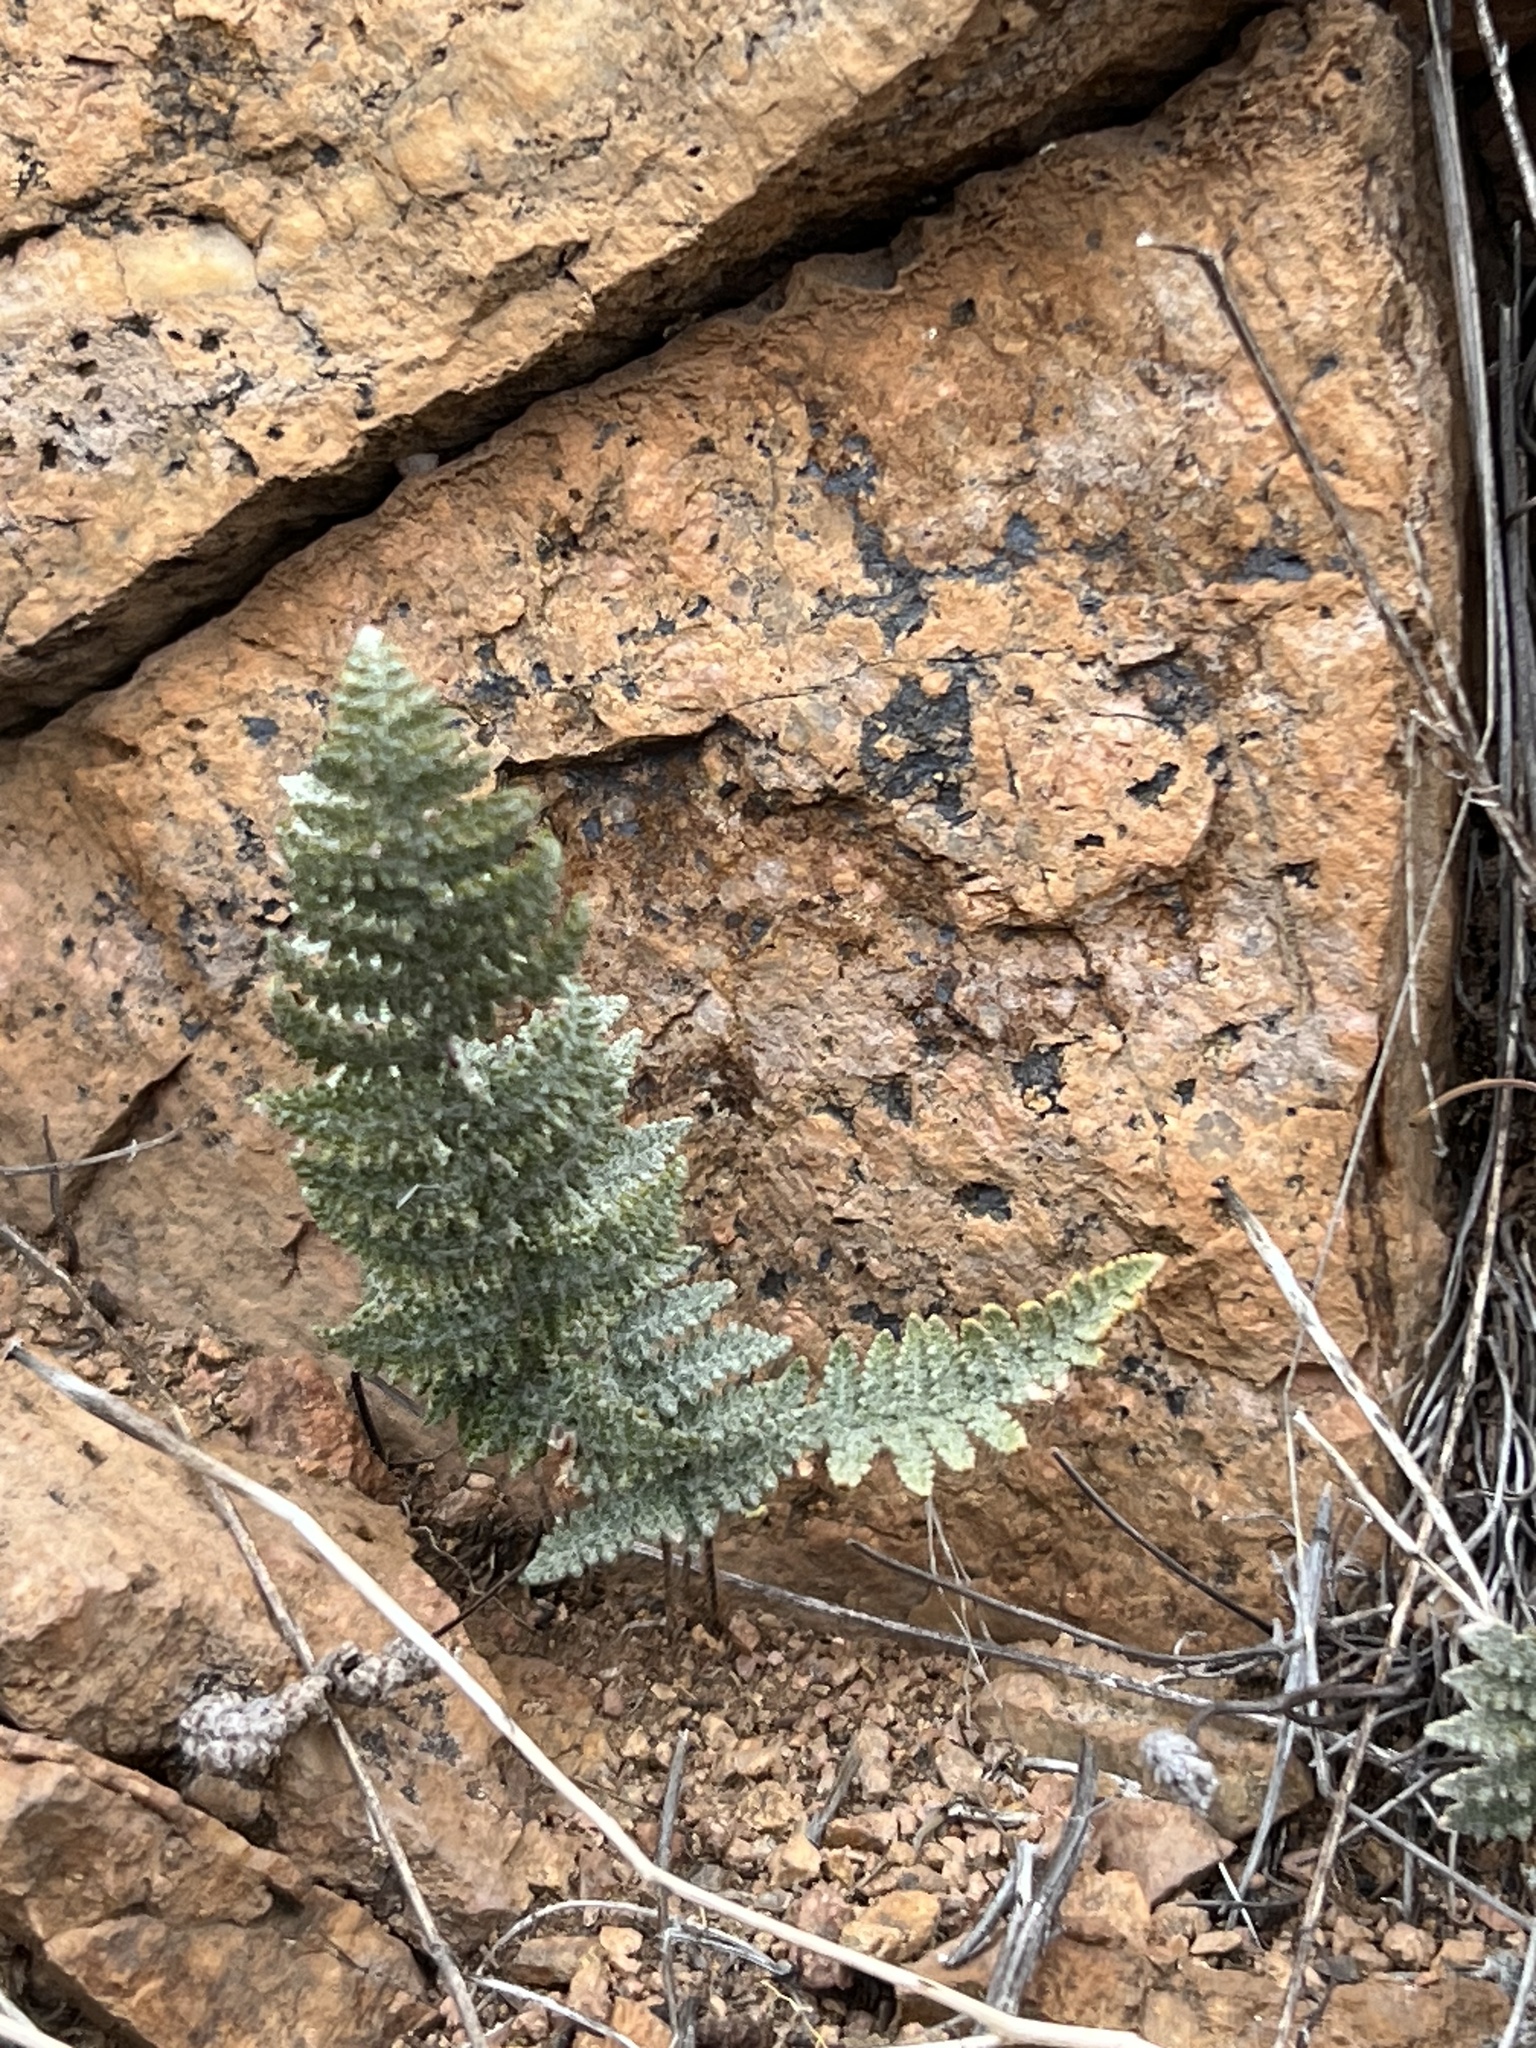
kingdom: Plantae
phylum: Tracheophyta
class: Polypodiopsida
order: Polypodiales
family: Pteridaceae
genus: Myriopteris
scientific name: Myriopteris lindheimeri
